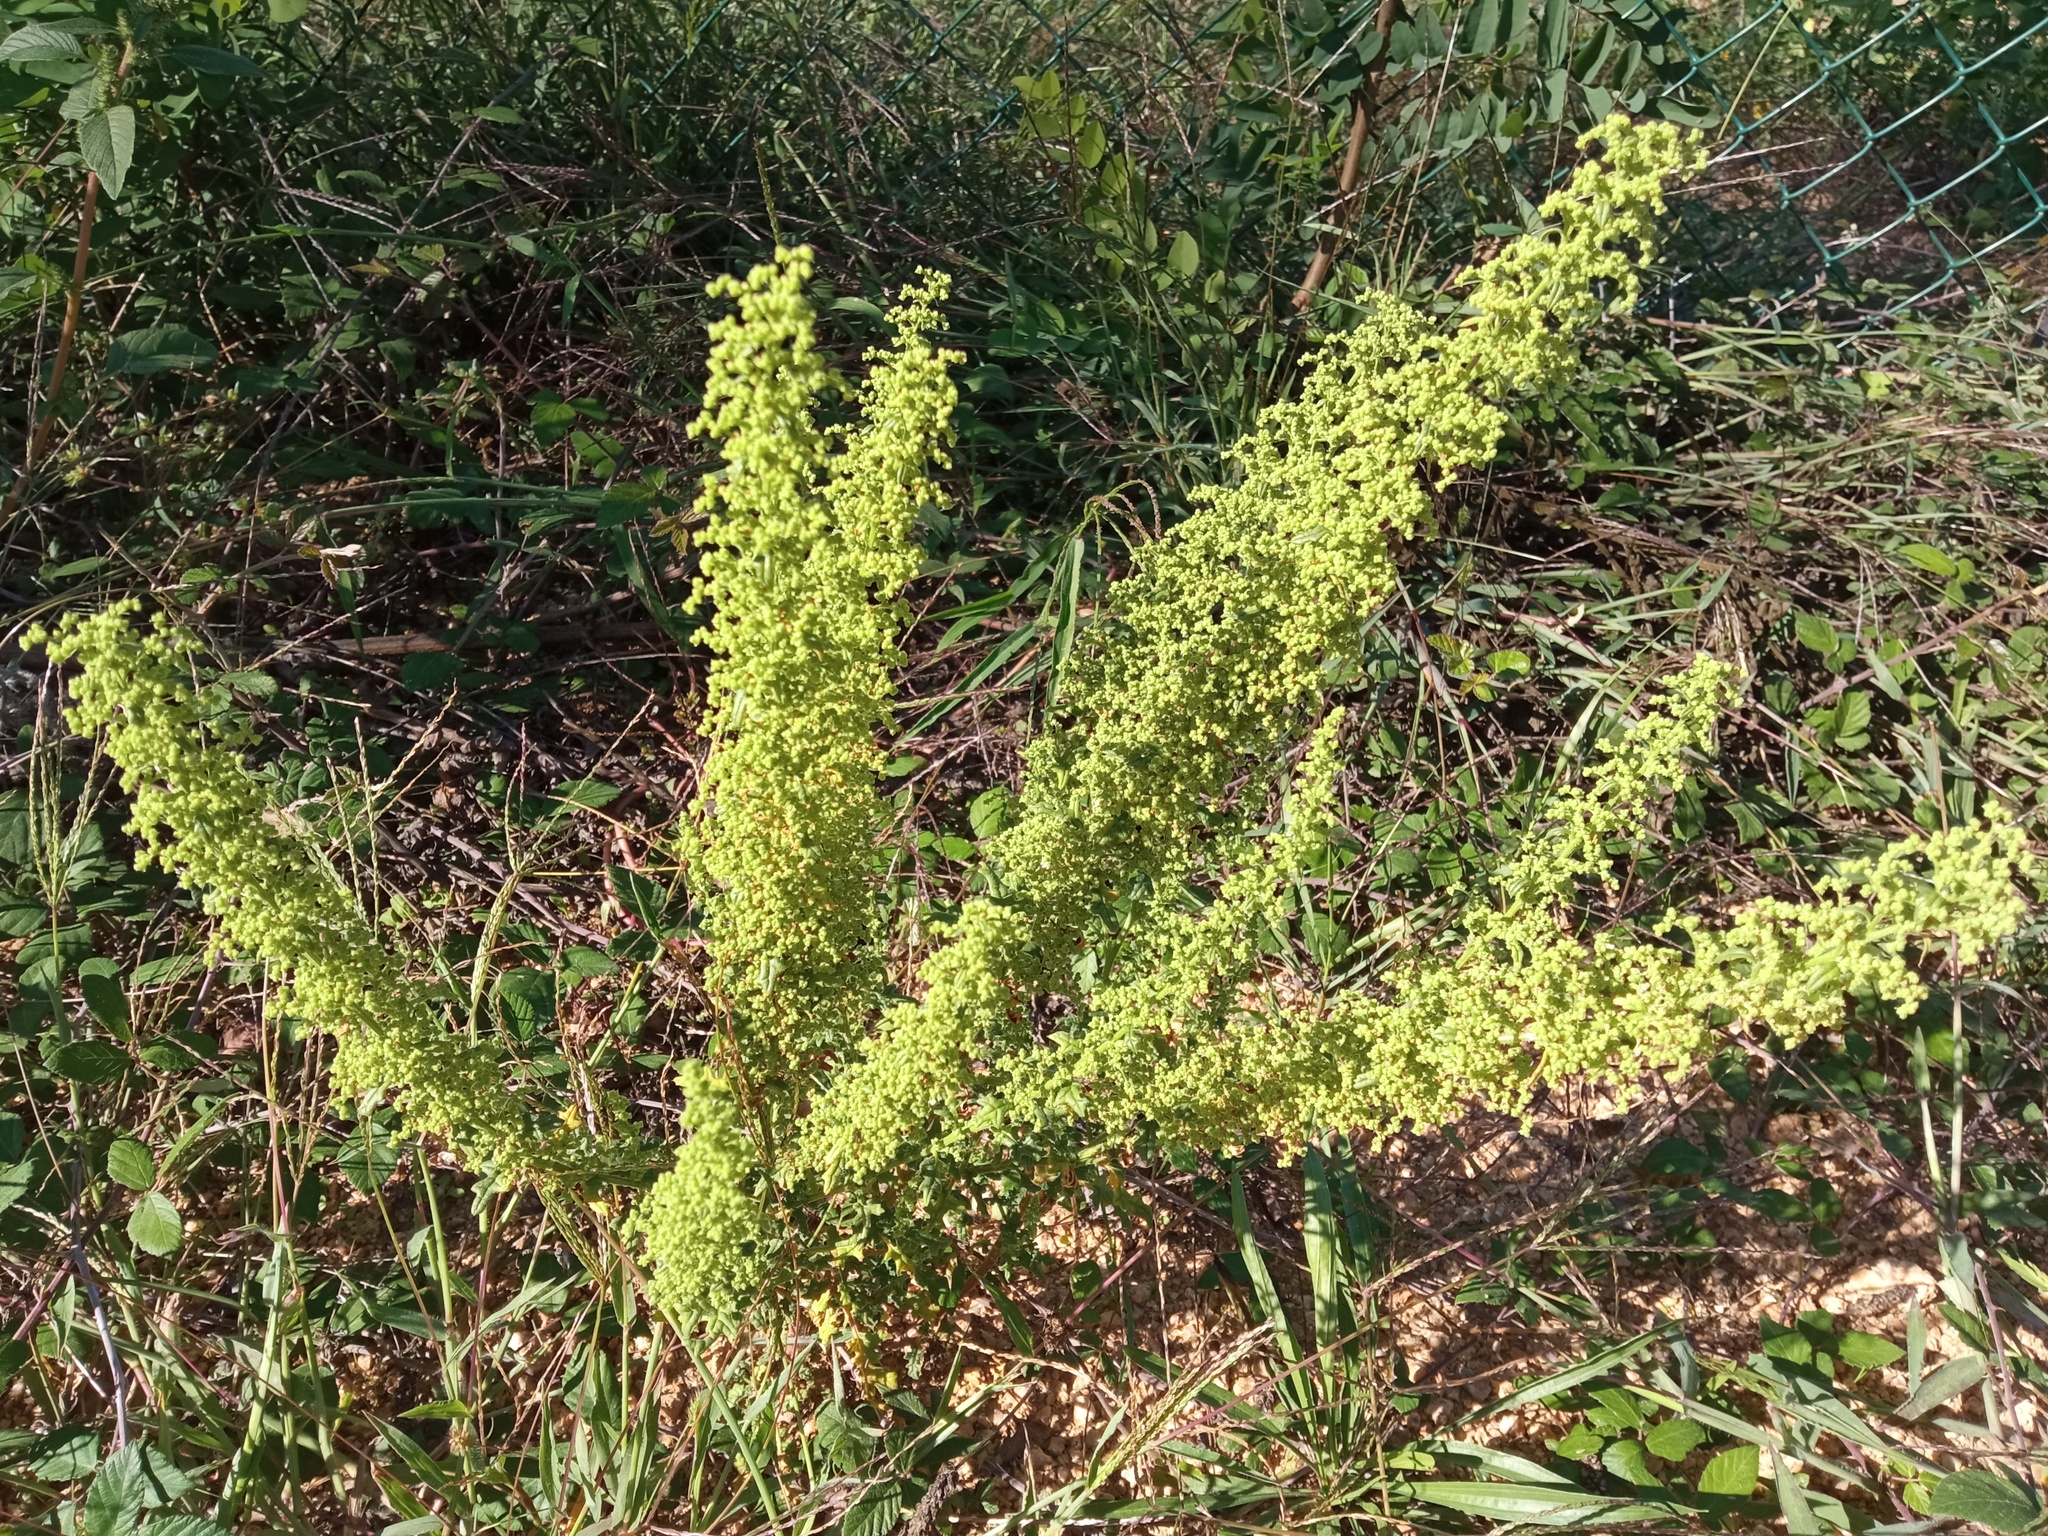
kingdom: Plantae
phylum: Tracheophyta
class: Magnoliopsida
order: Caryophyllales
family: Amaranthaceae
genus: Dysphania
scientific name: Dysphania botrys
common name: Feather-geranium
